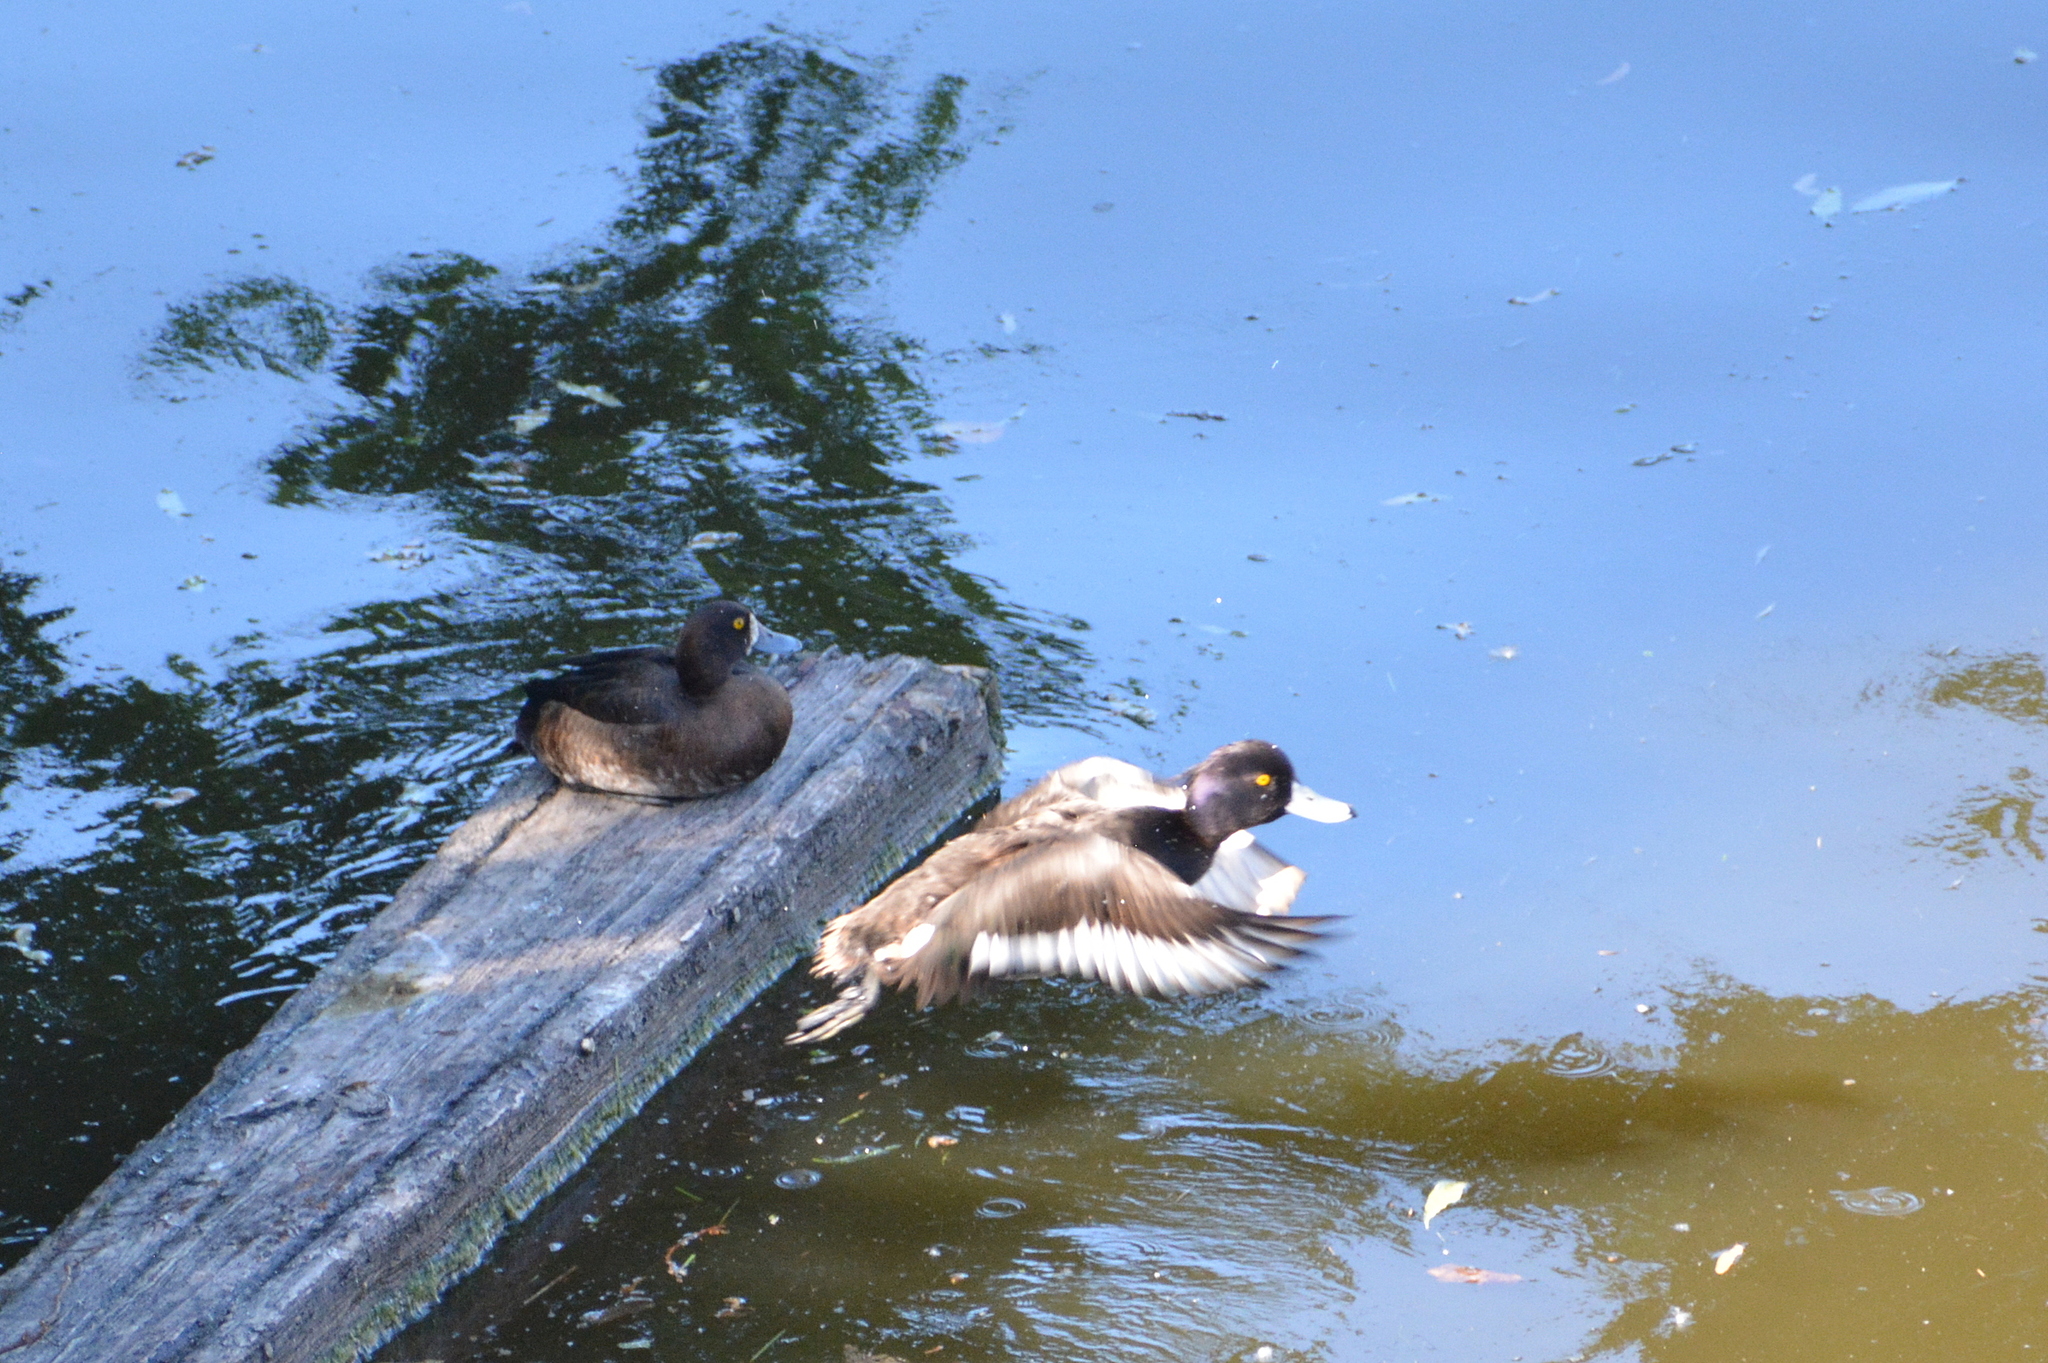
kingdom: Animalia
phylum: Chordata
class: Aves
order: Anseriformes
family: Anatidae
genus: Aythya
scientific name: Aythya fuligula
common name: Tufted duck
